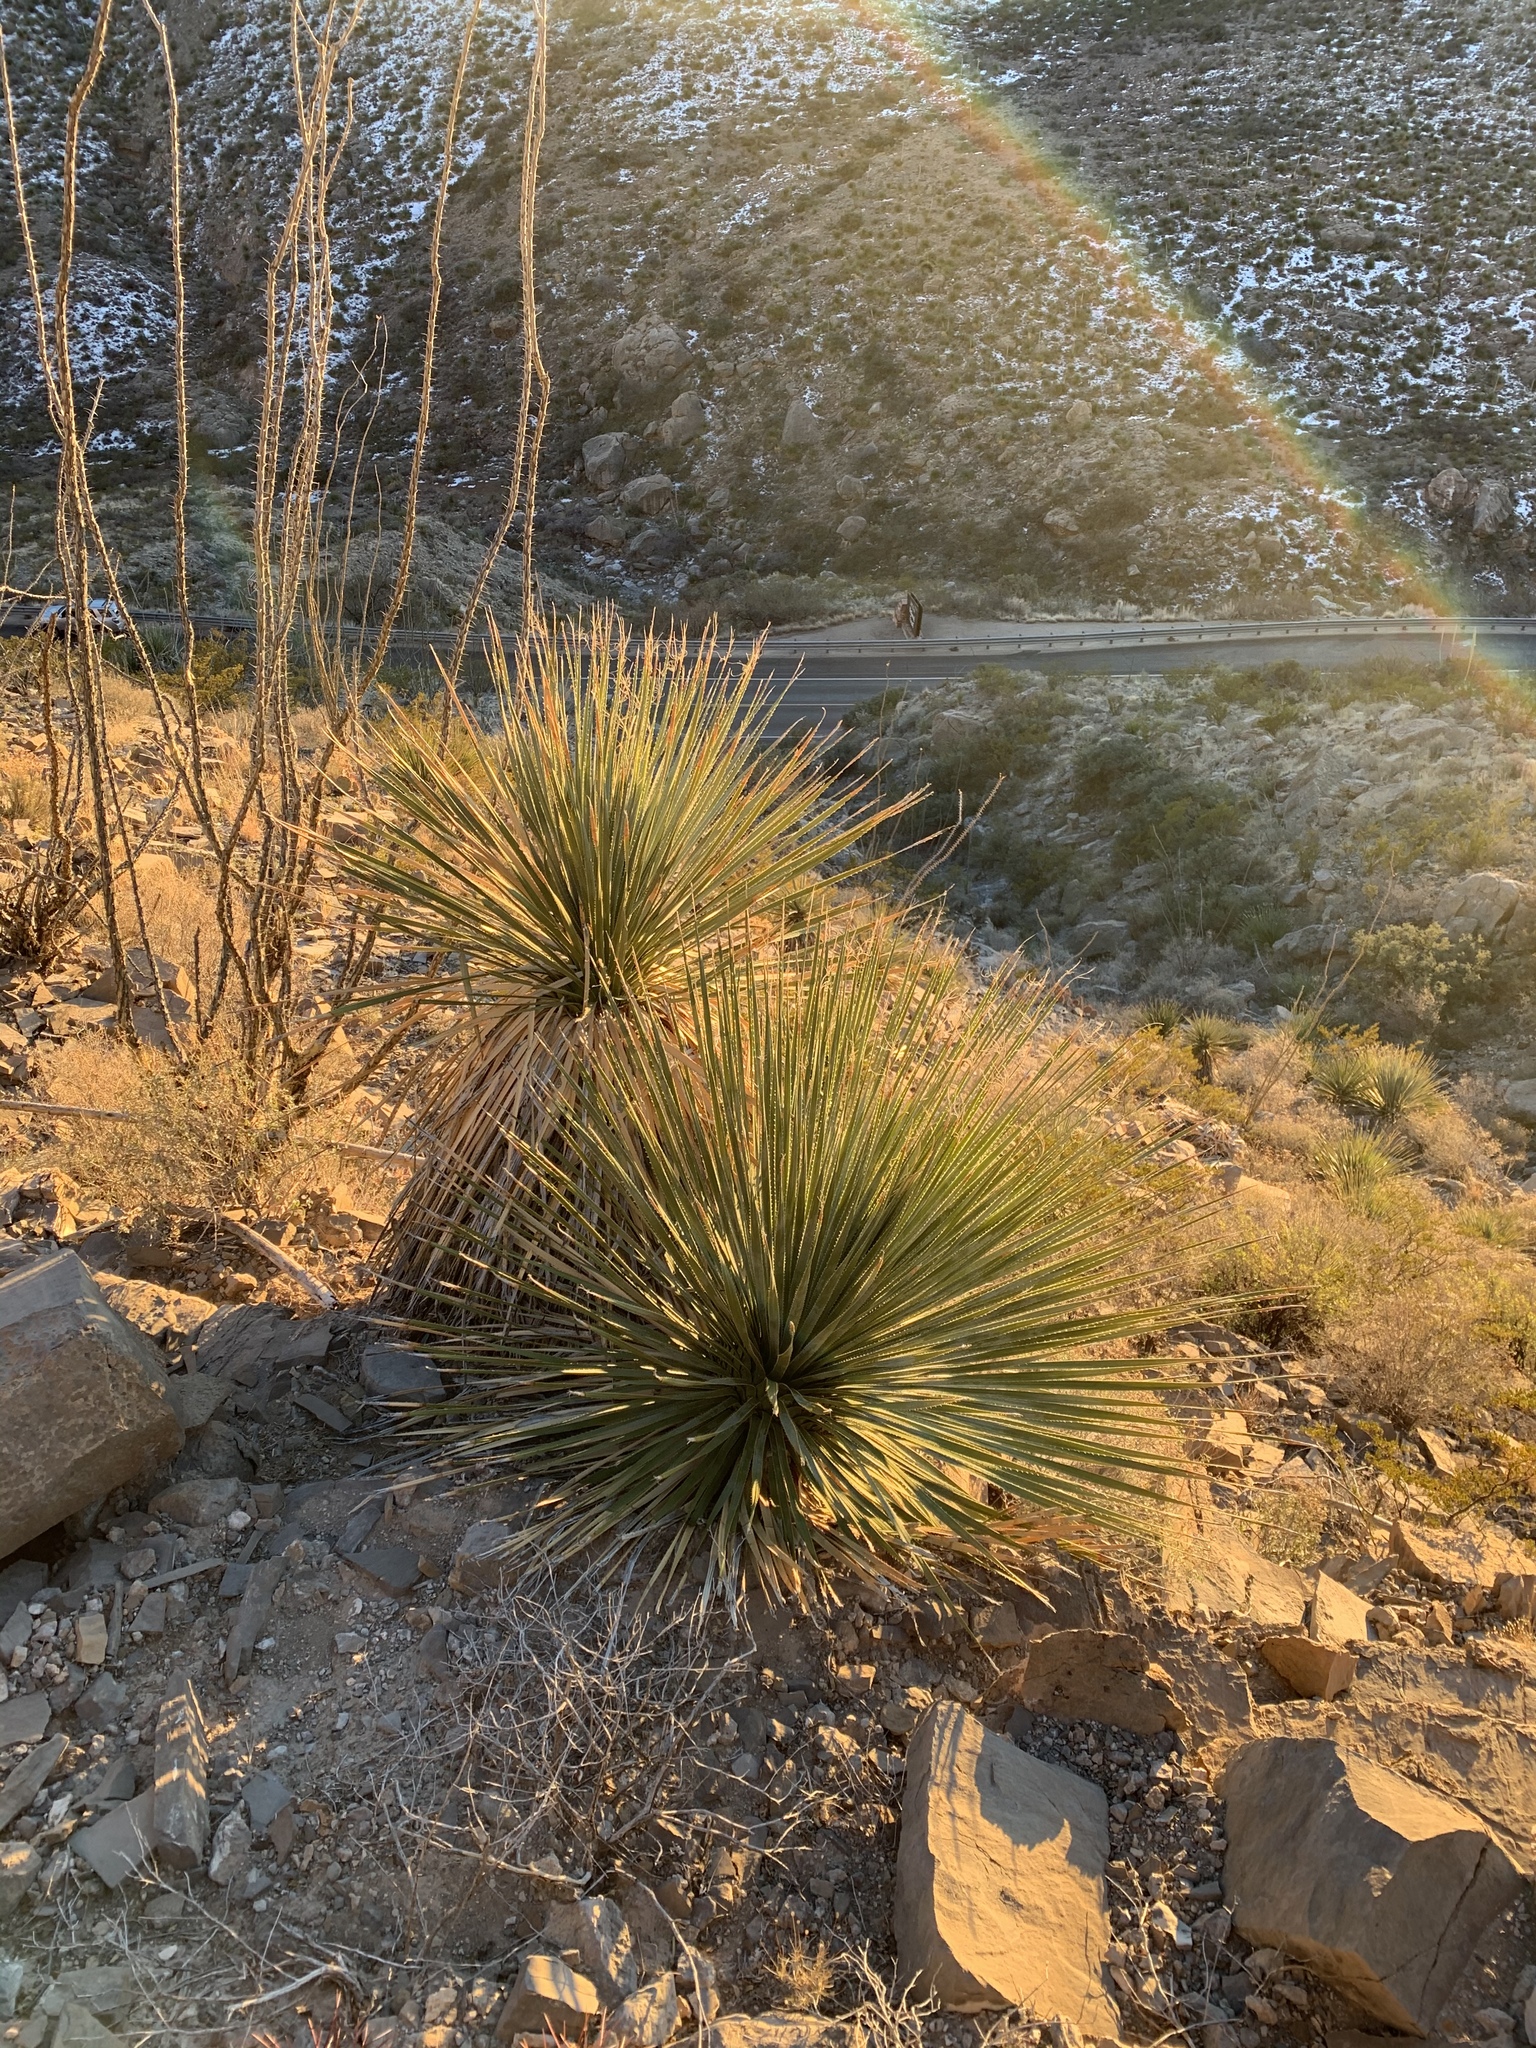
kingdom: Plantae
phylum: Tracheophyta
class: Liliopsida
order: Asparagales
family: Asparagaceae
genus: Dasylirion
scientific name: Dasylirion wheeleri
